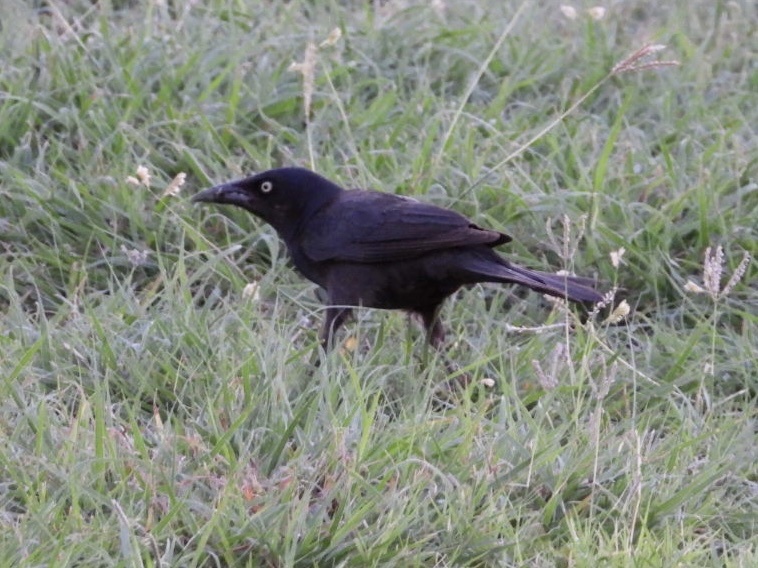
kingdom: Animalia
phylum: Chordata
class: Aves
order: Passeriformes
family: Icteridae
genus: Quiscalus
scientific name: Quiscalus mexicanus
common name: Great-tailed grackle
